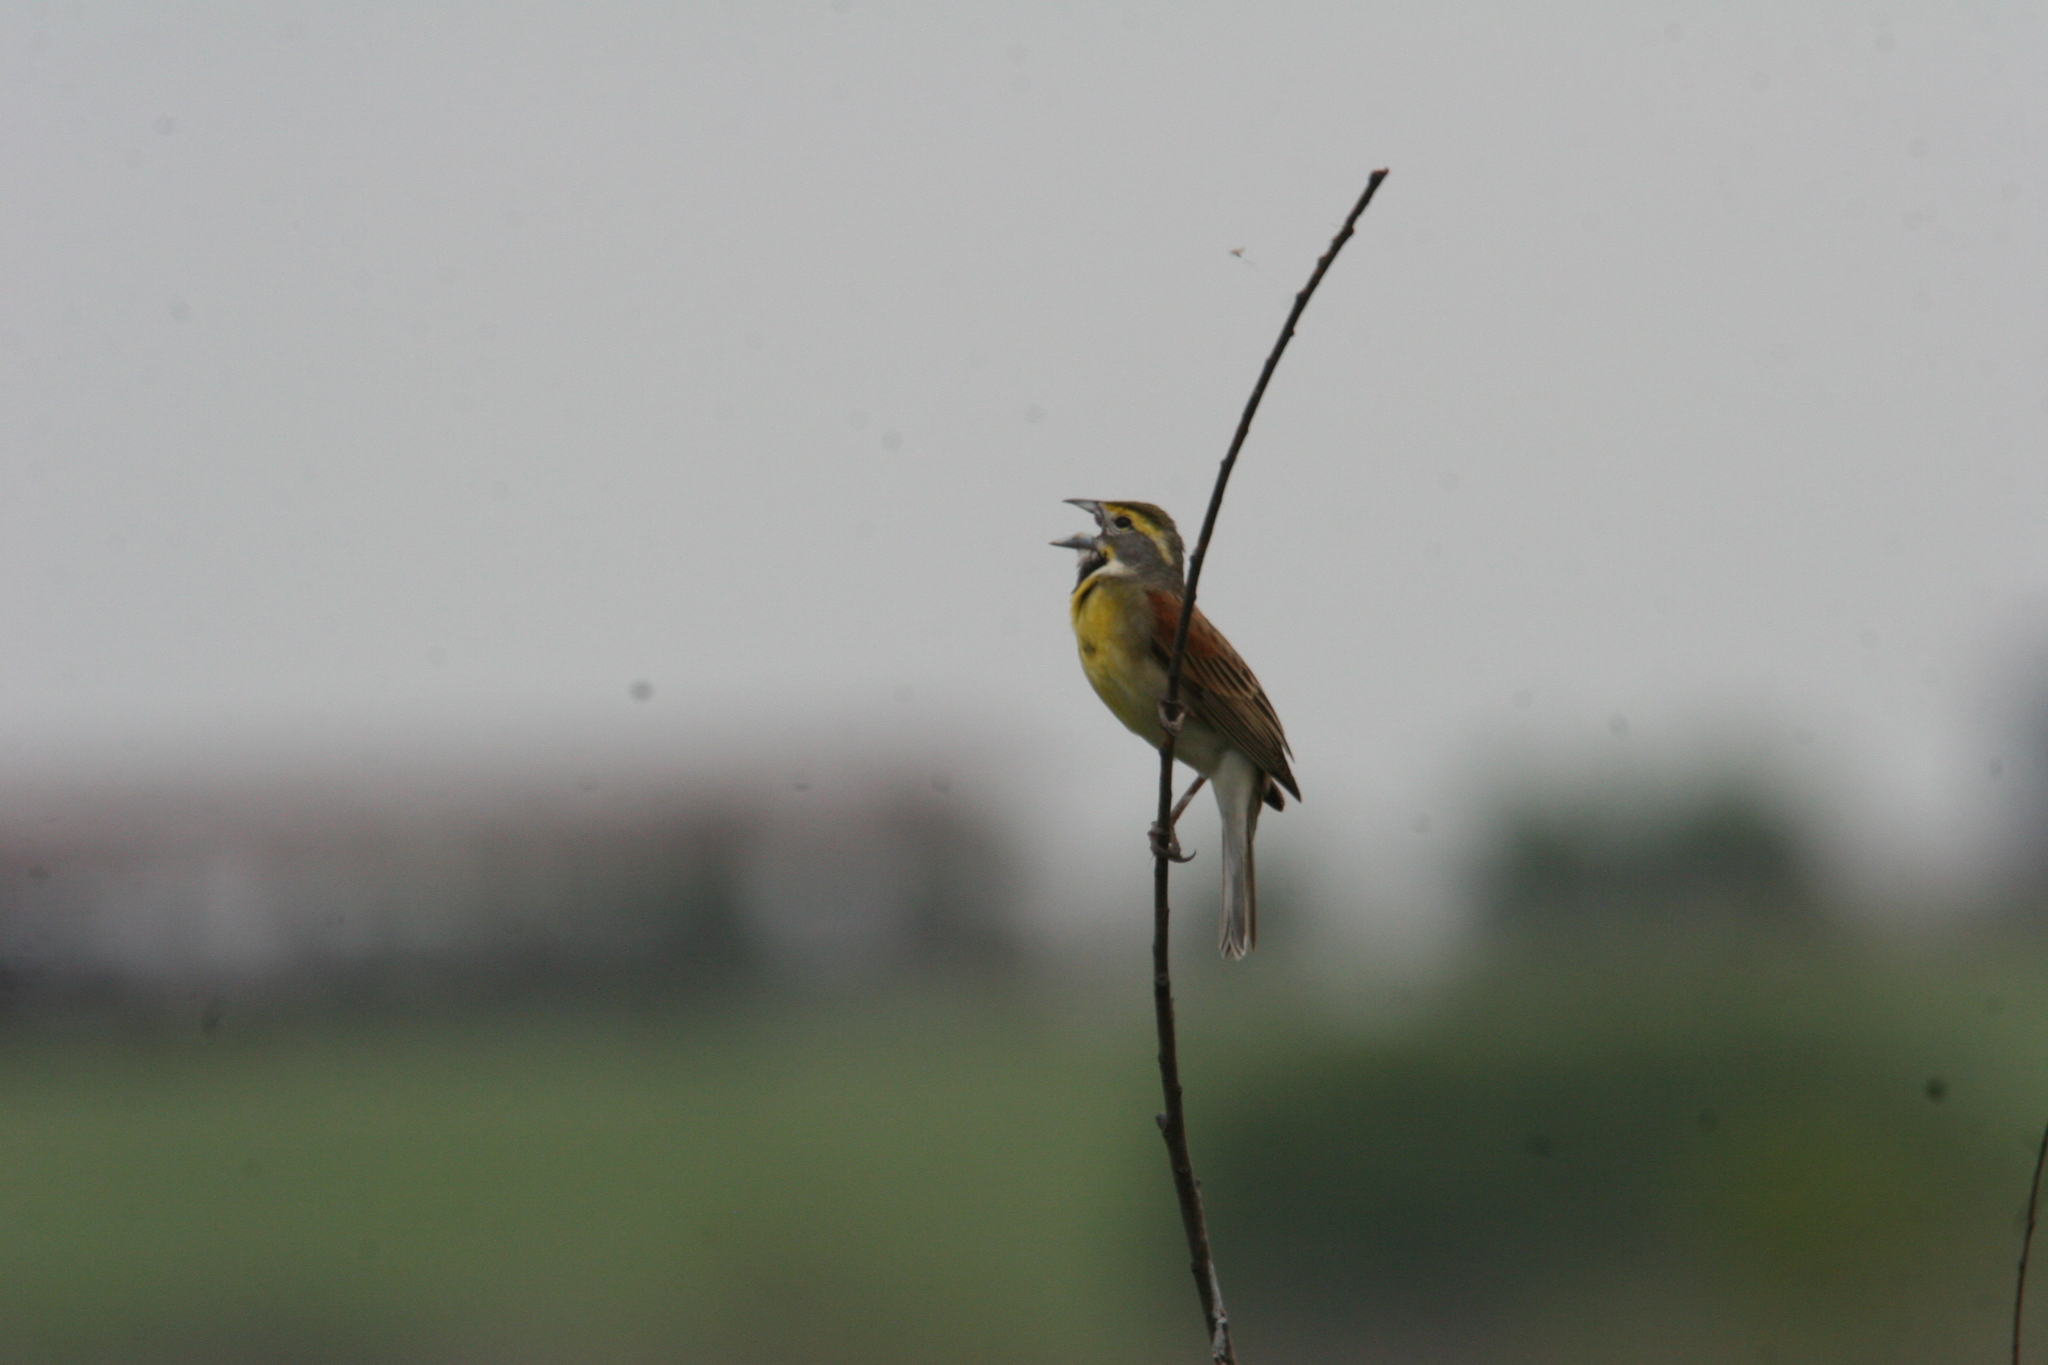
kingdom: Animalia
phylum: Chordata
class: Aves
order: Passeriformes
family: Cardinalidae
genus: Spiza
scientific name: Spiza americana
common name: Dickcissel
